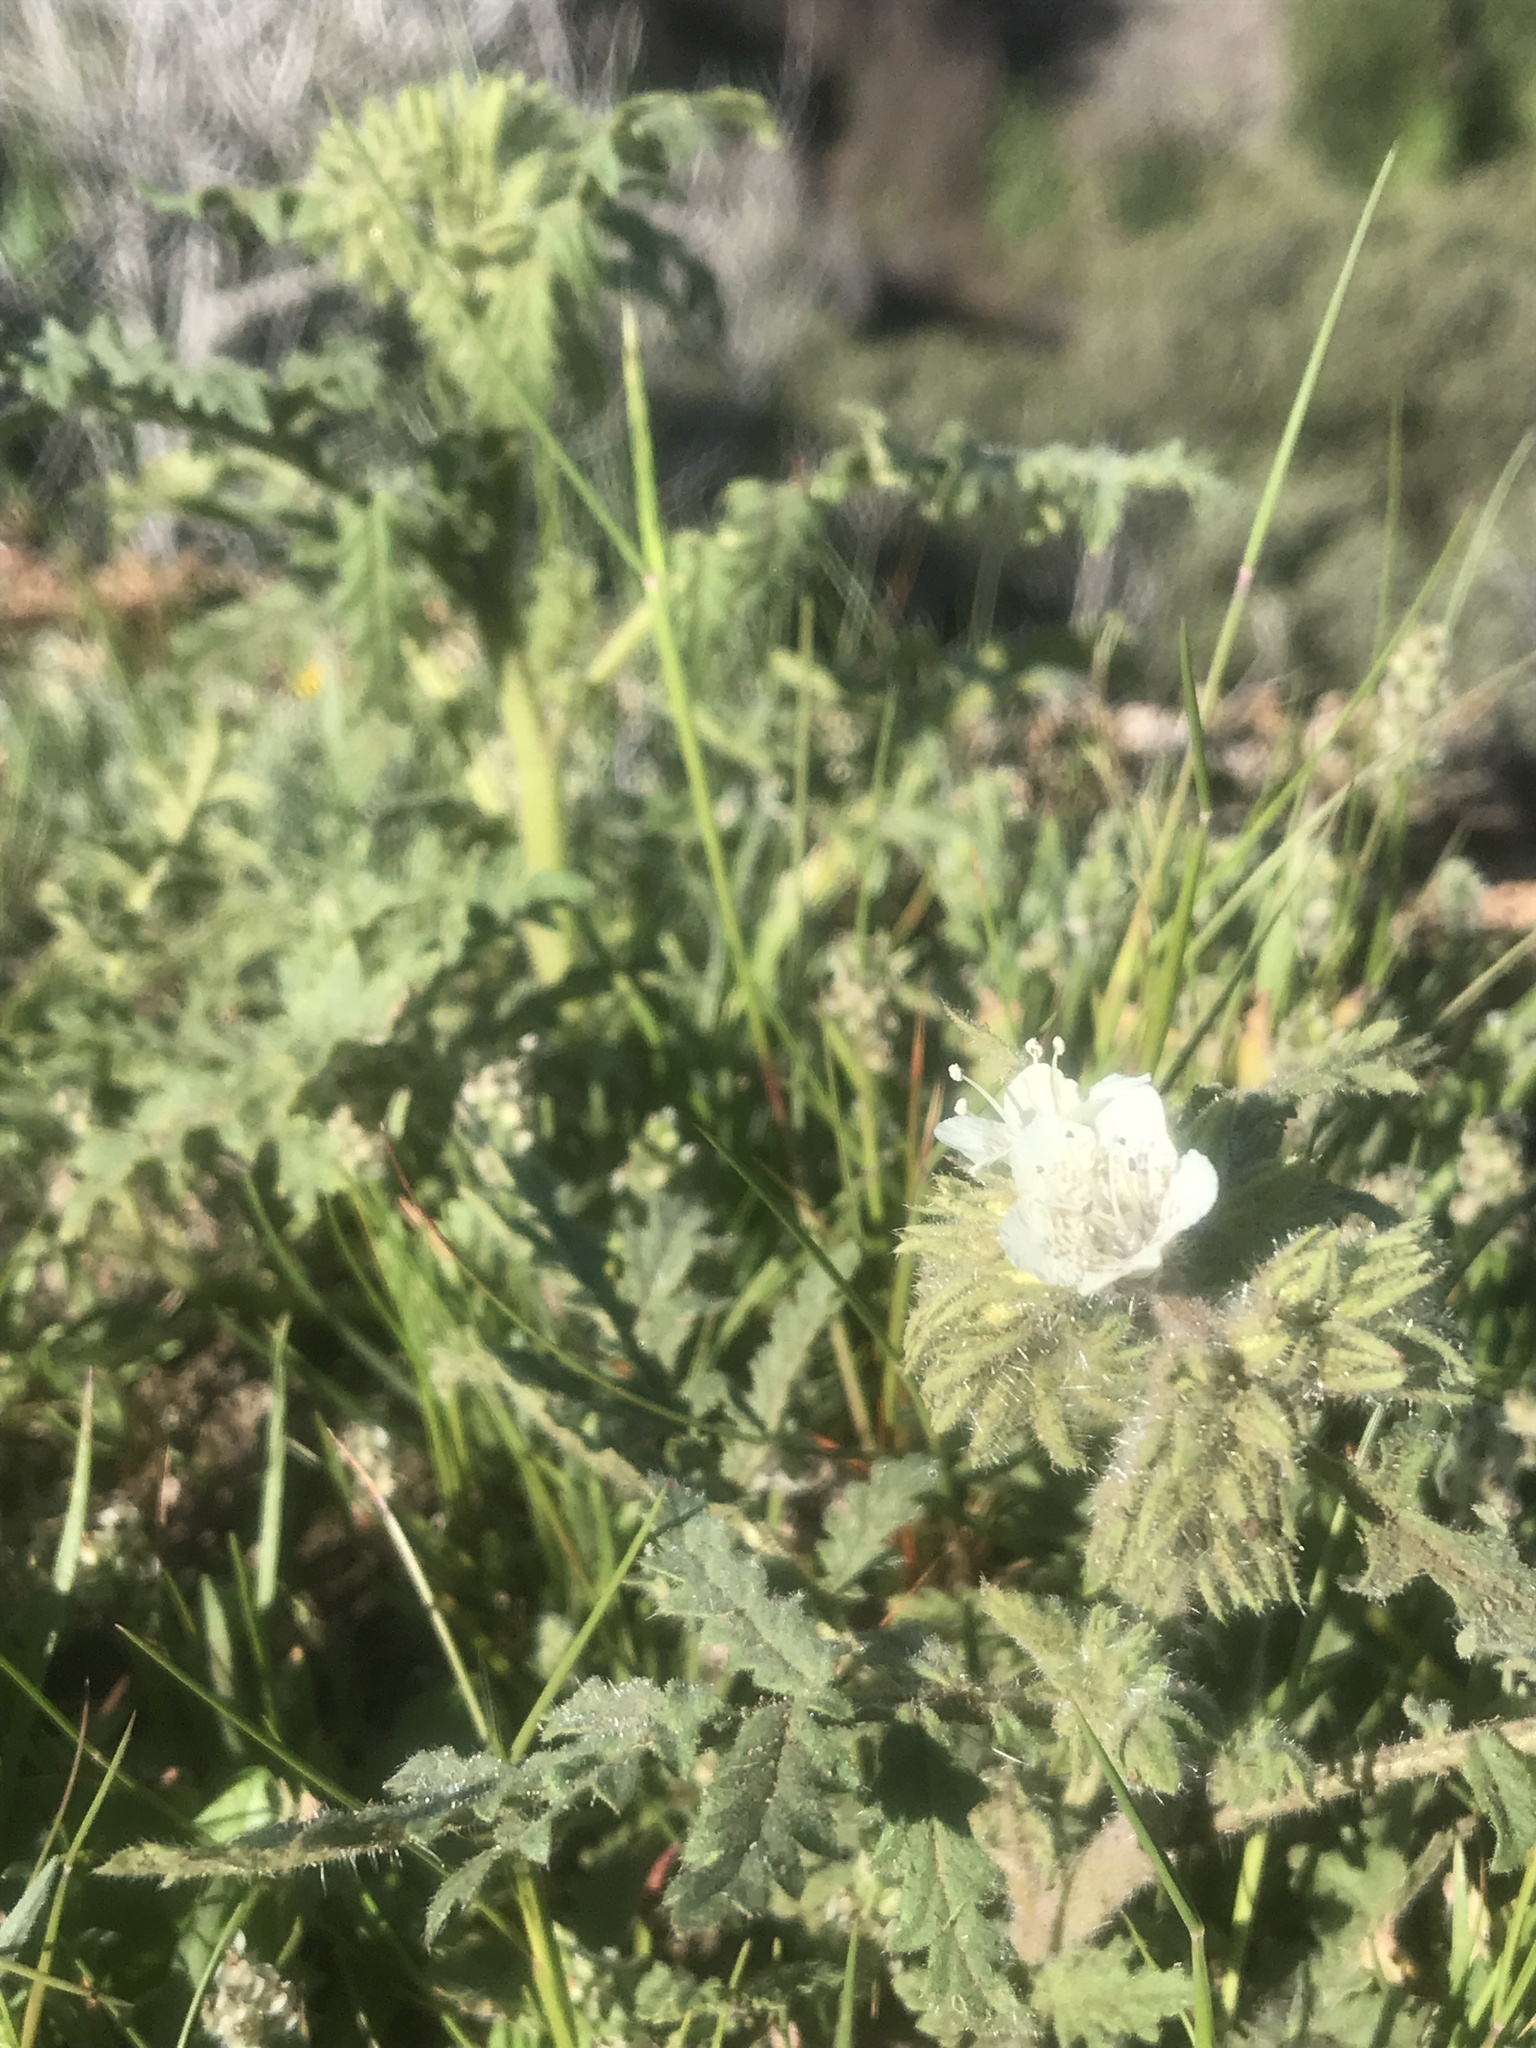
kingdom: Plantae
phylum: Tracheophyta
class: Magnoliopsida
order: Boraginales
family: Hydrophyllaceae
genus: Phacelia
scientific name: Phacelia cicutaria
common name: Caterpillar phacelia
